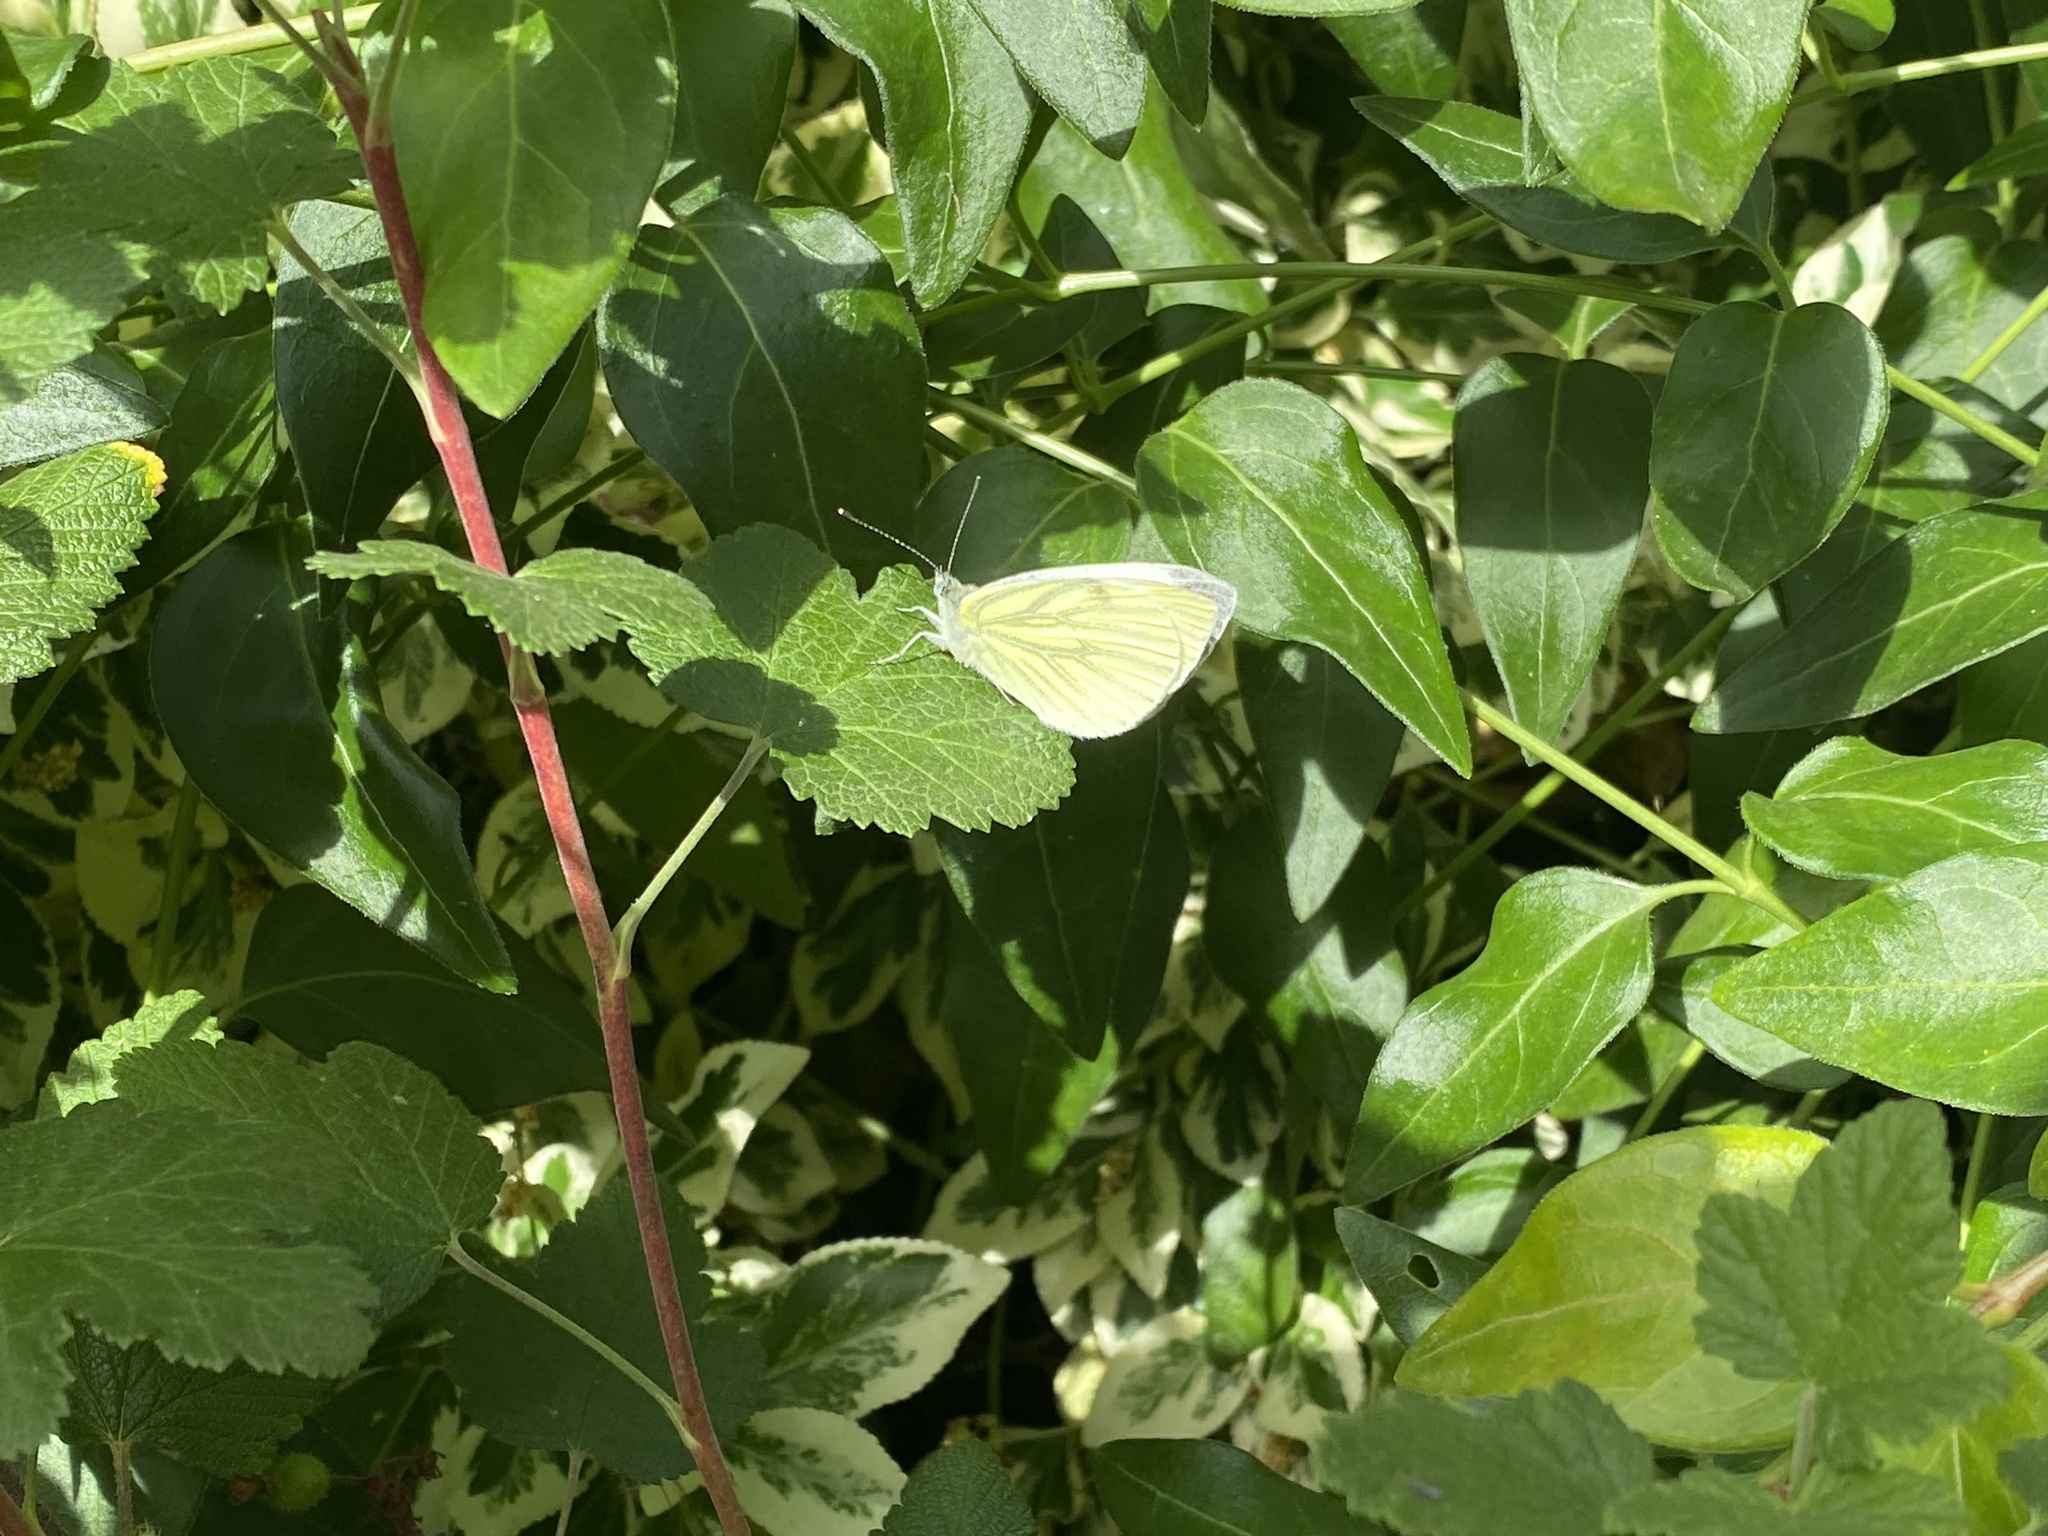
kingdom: Animalia
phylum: Arthropoda
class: Insecta
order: Lepidoptera
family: Pieridae
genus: Pieris
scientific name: Pieris napi
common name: Green-veined white
